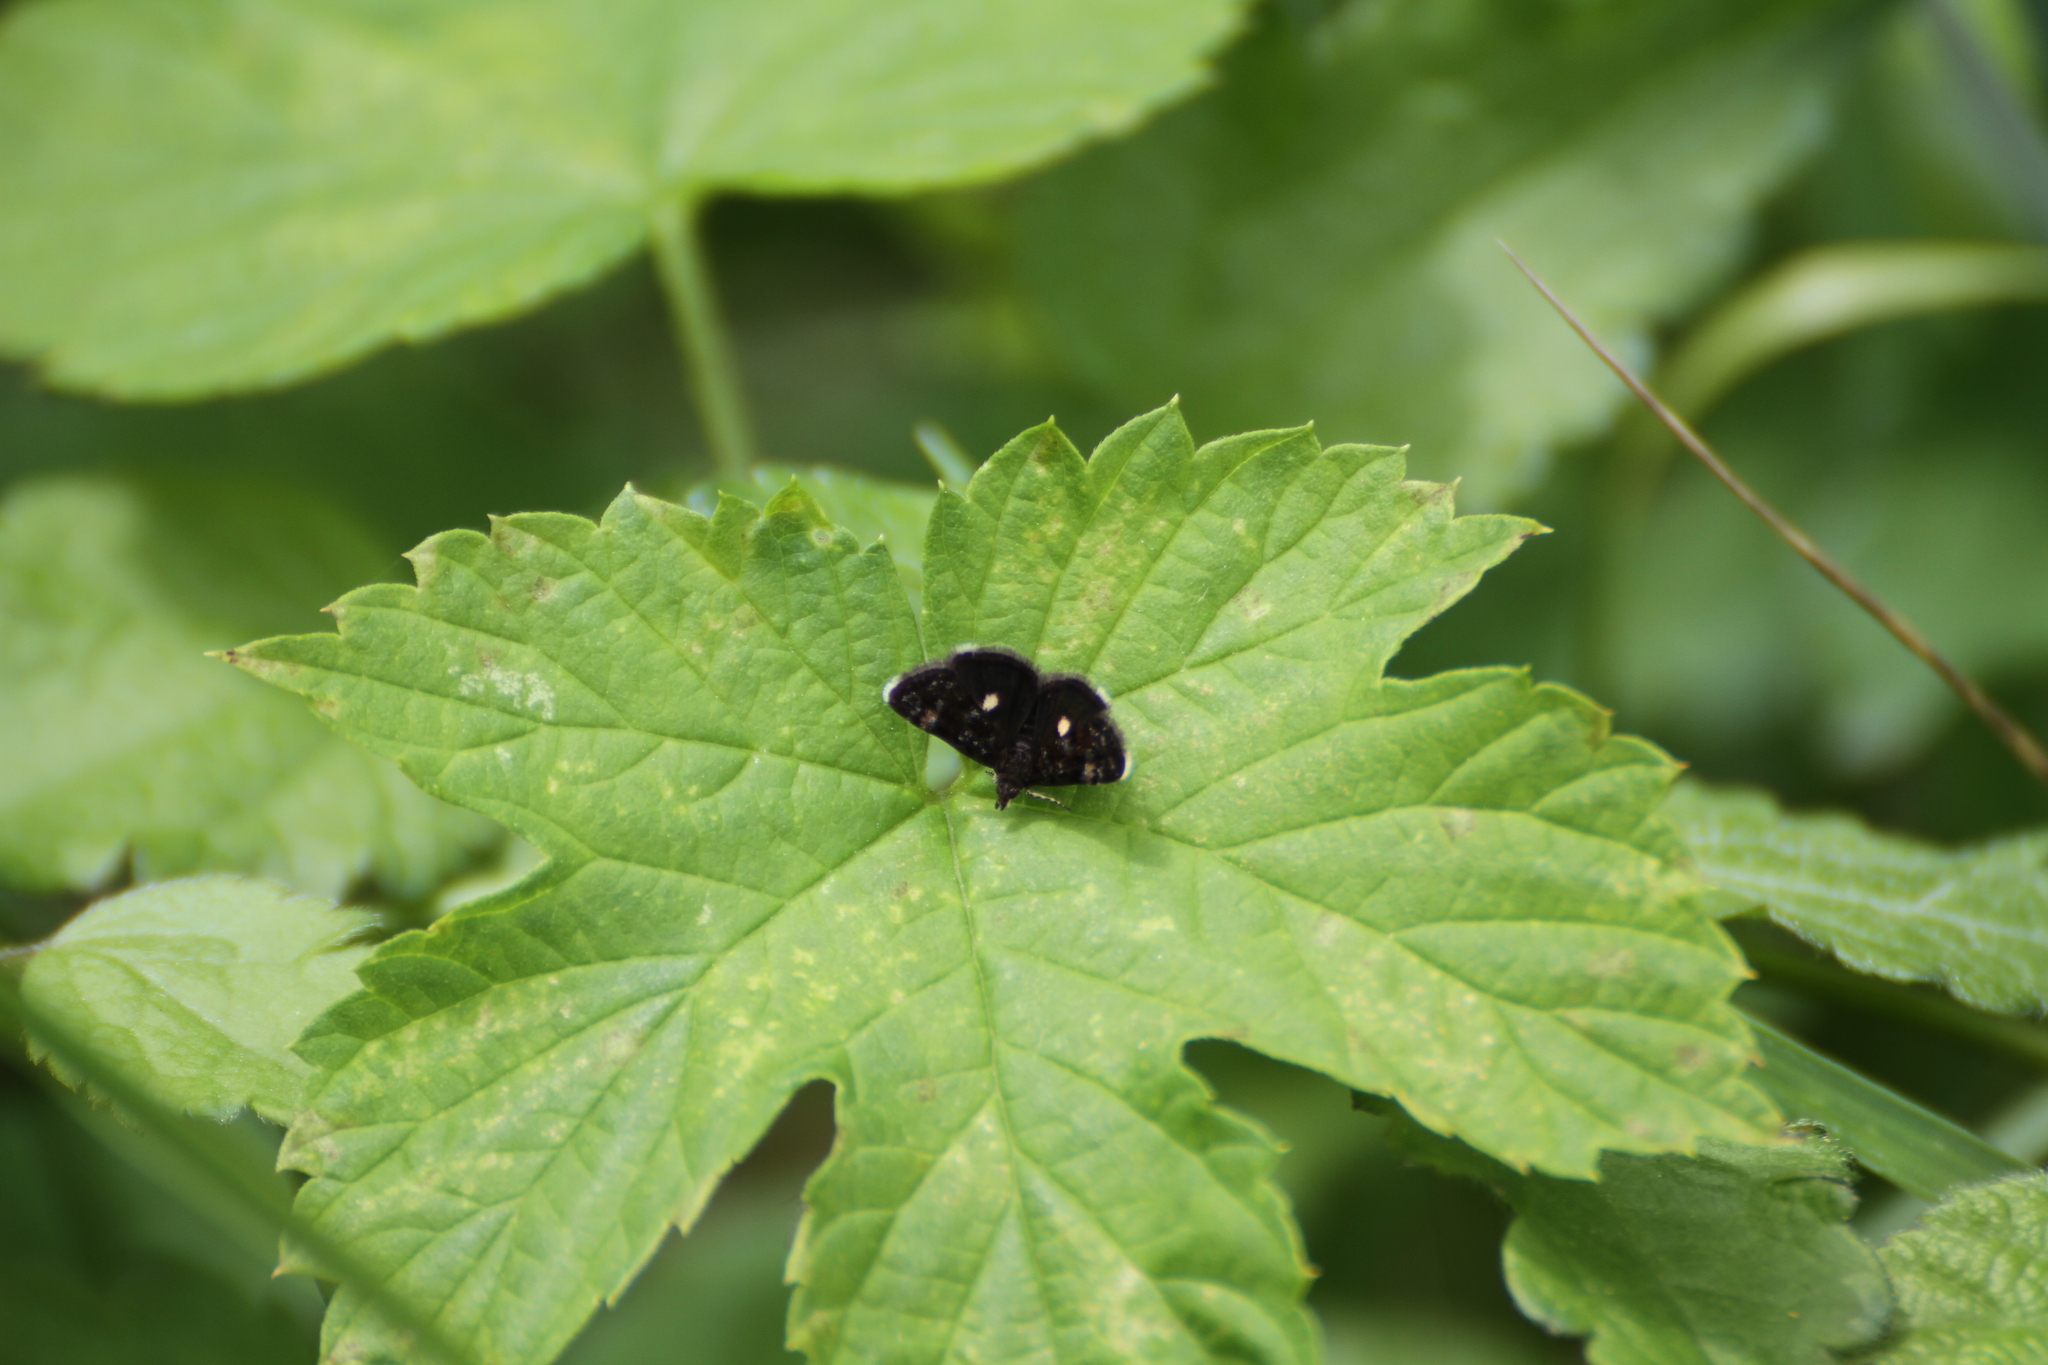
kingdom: Animalia
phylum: Arthropoda
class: Insecta
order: Lepidoptera
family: Crambidae
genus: Heliothela
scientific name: Heliothela wulfeniana
